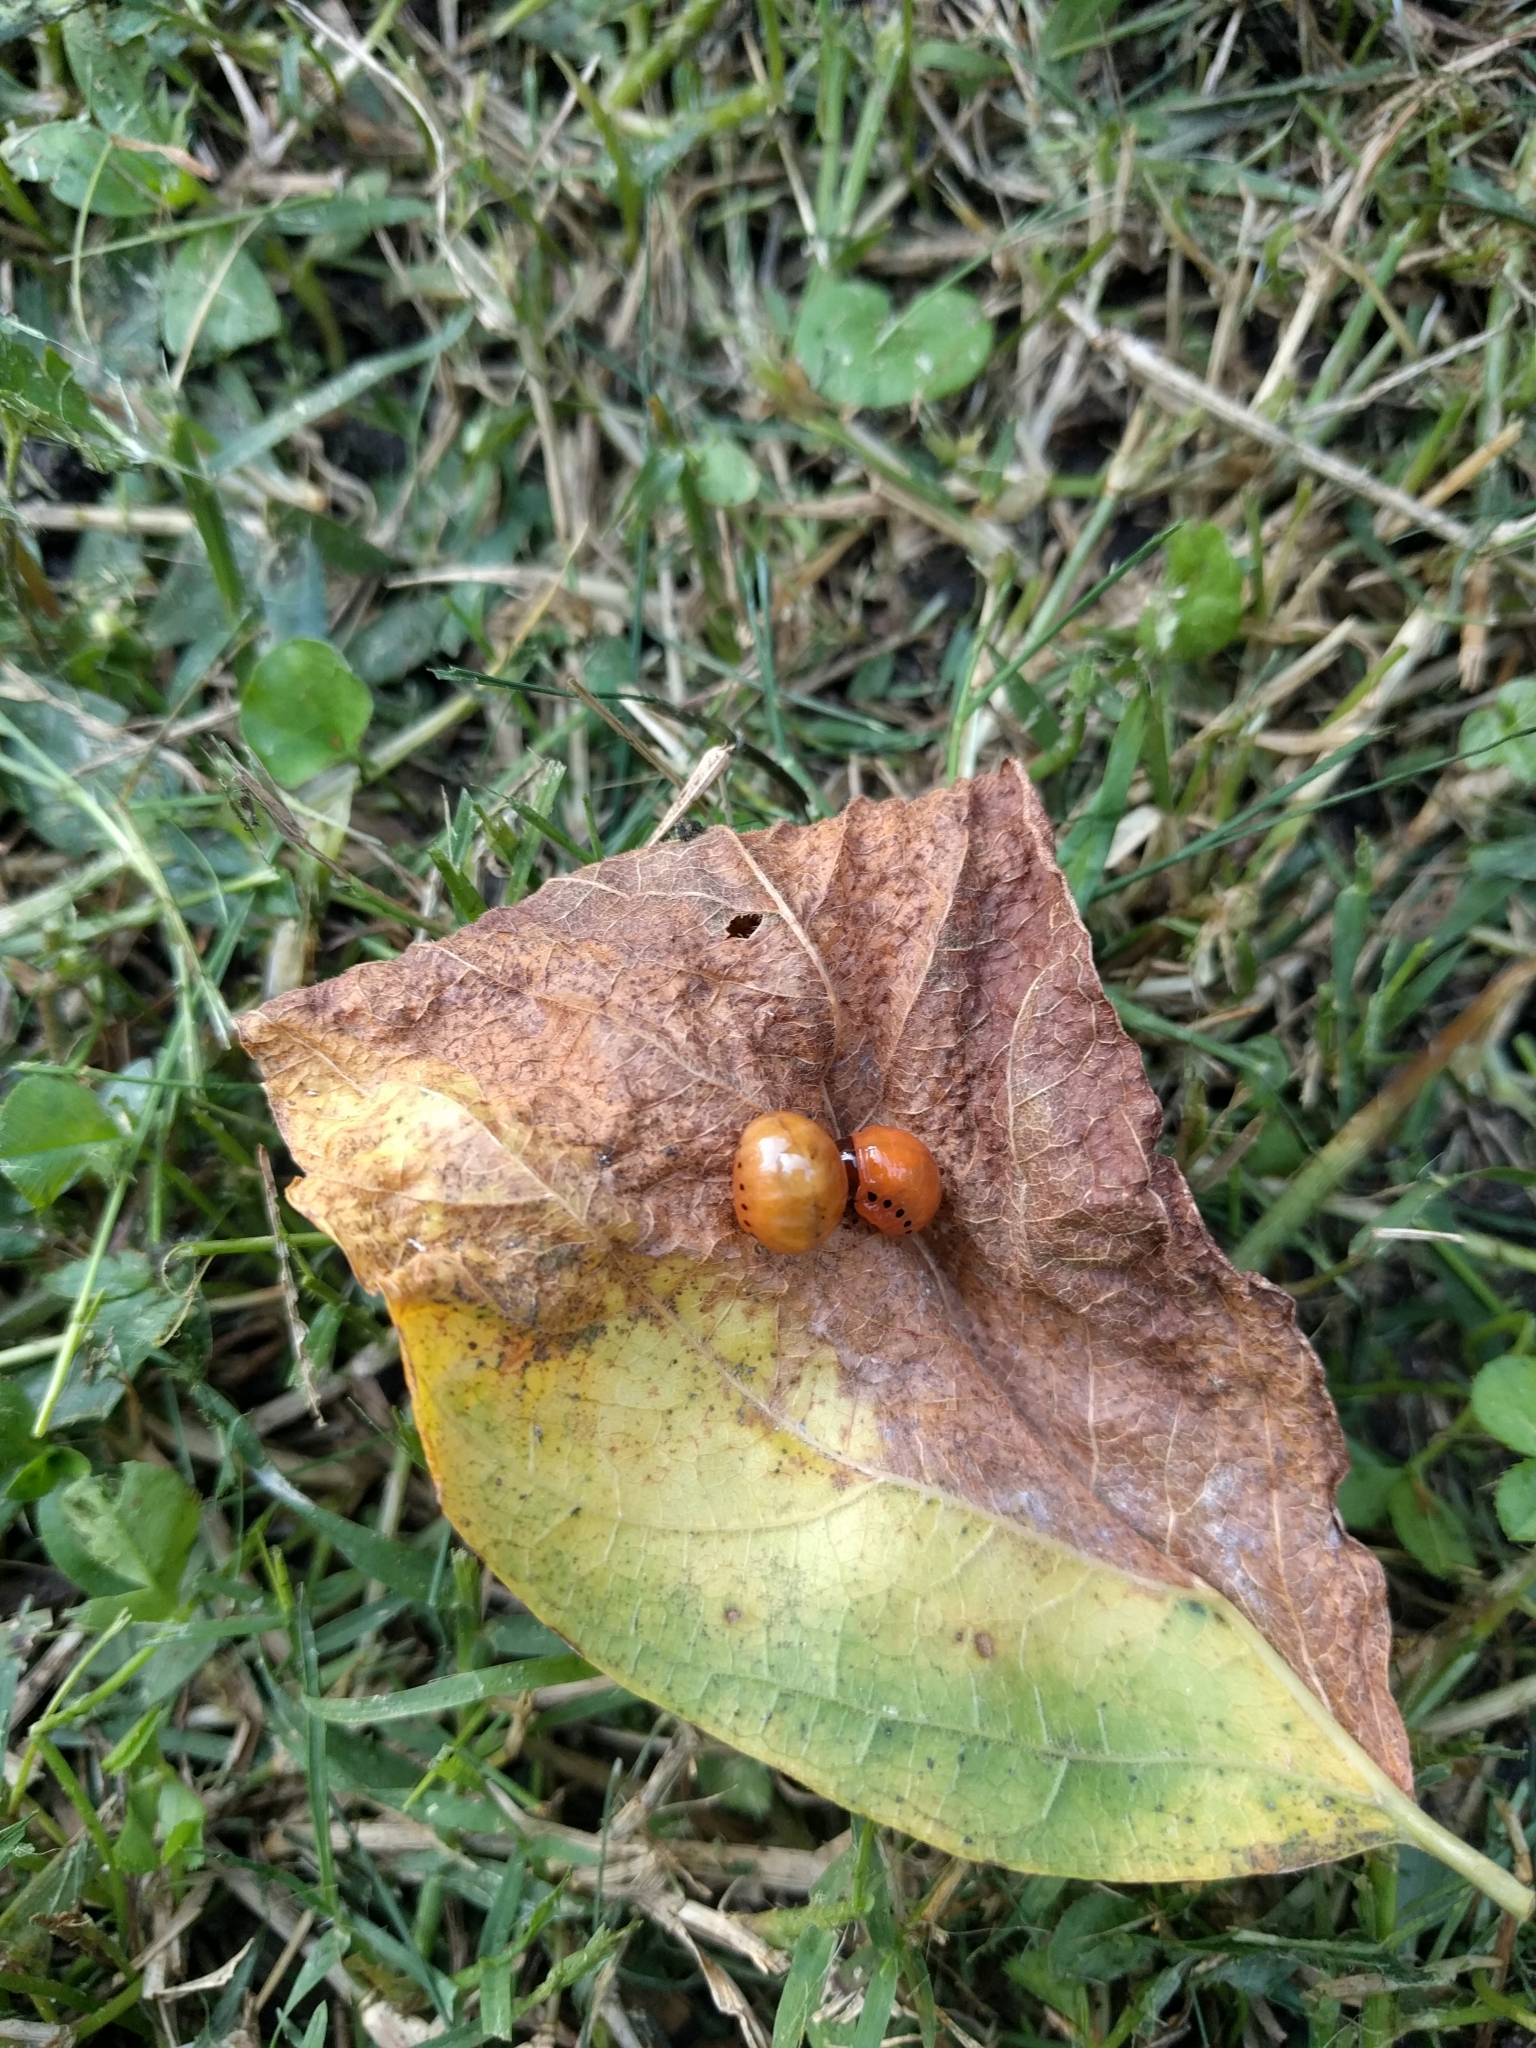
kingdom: Animalia
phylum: Arthropoda
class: Insecta
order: Coleoptera
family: Chrysomelidae
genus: Labidomera
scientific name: Labidomera clivicollis
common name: Swamp milkweed leaf beetle
